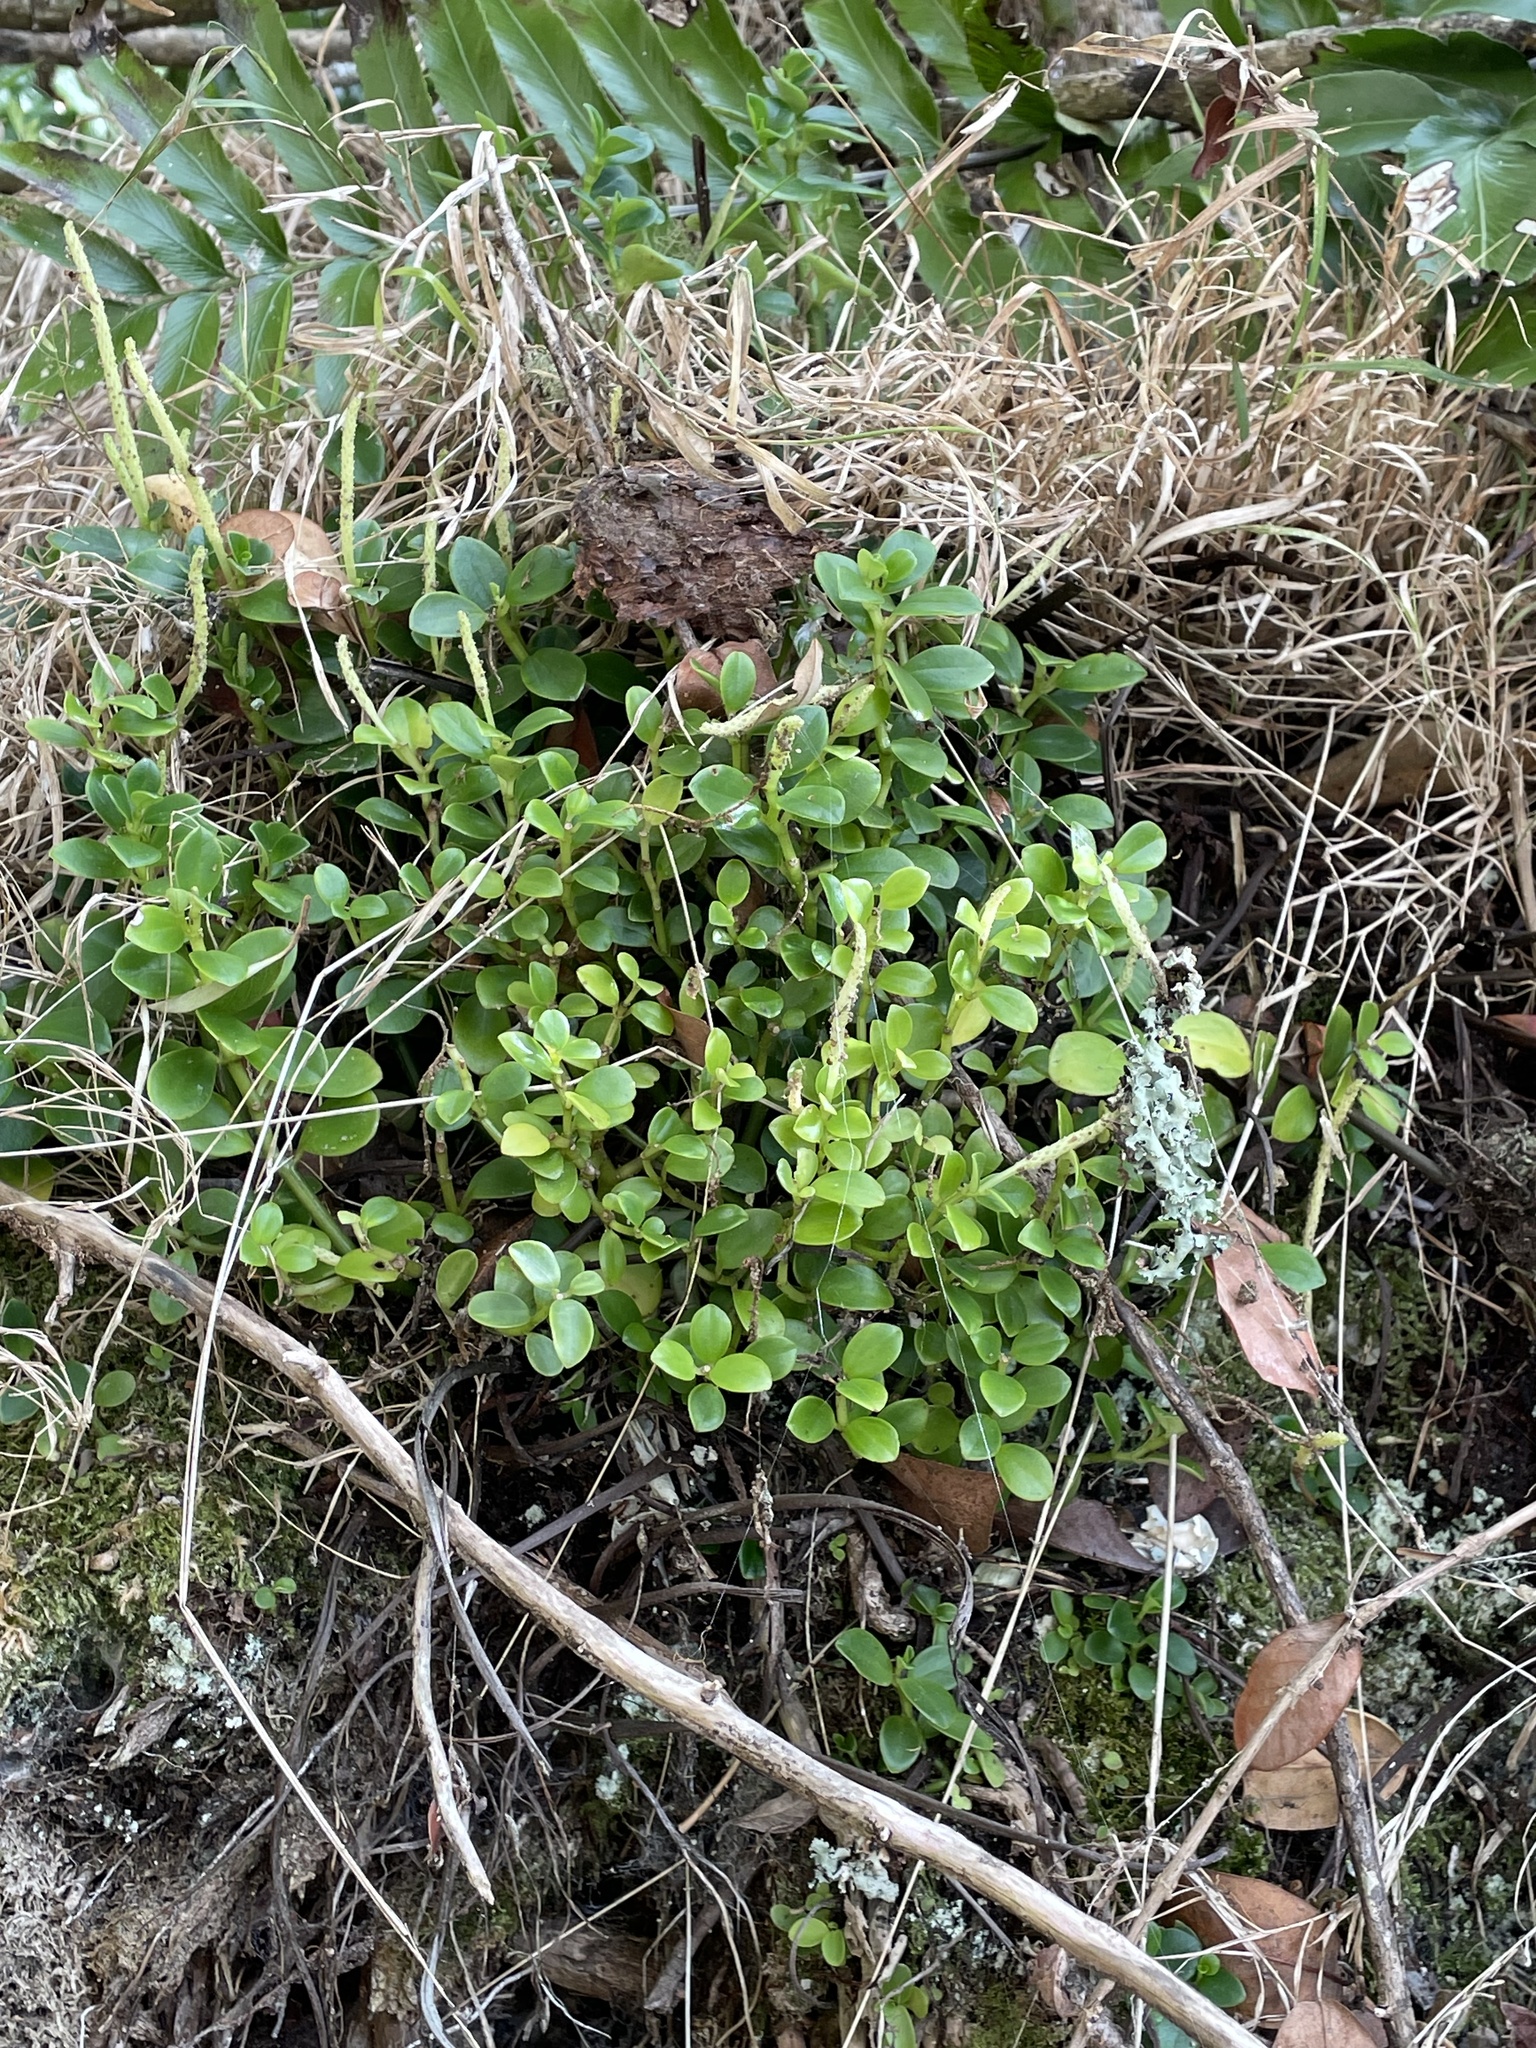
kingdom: Plantae
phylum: Tracheophyta
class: Magnoliopsida
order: Piperales
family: Piperaceae
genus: Peperomia
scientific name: Peperomia urvilleana
